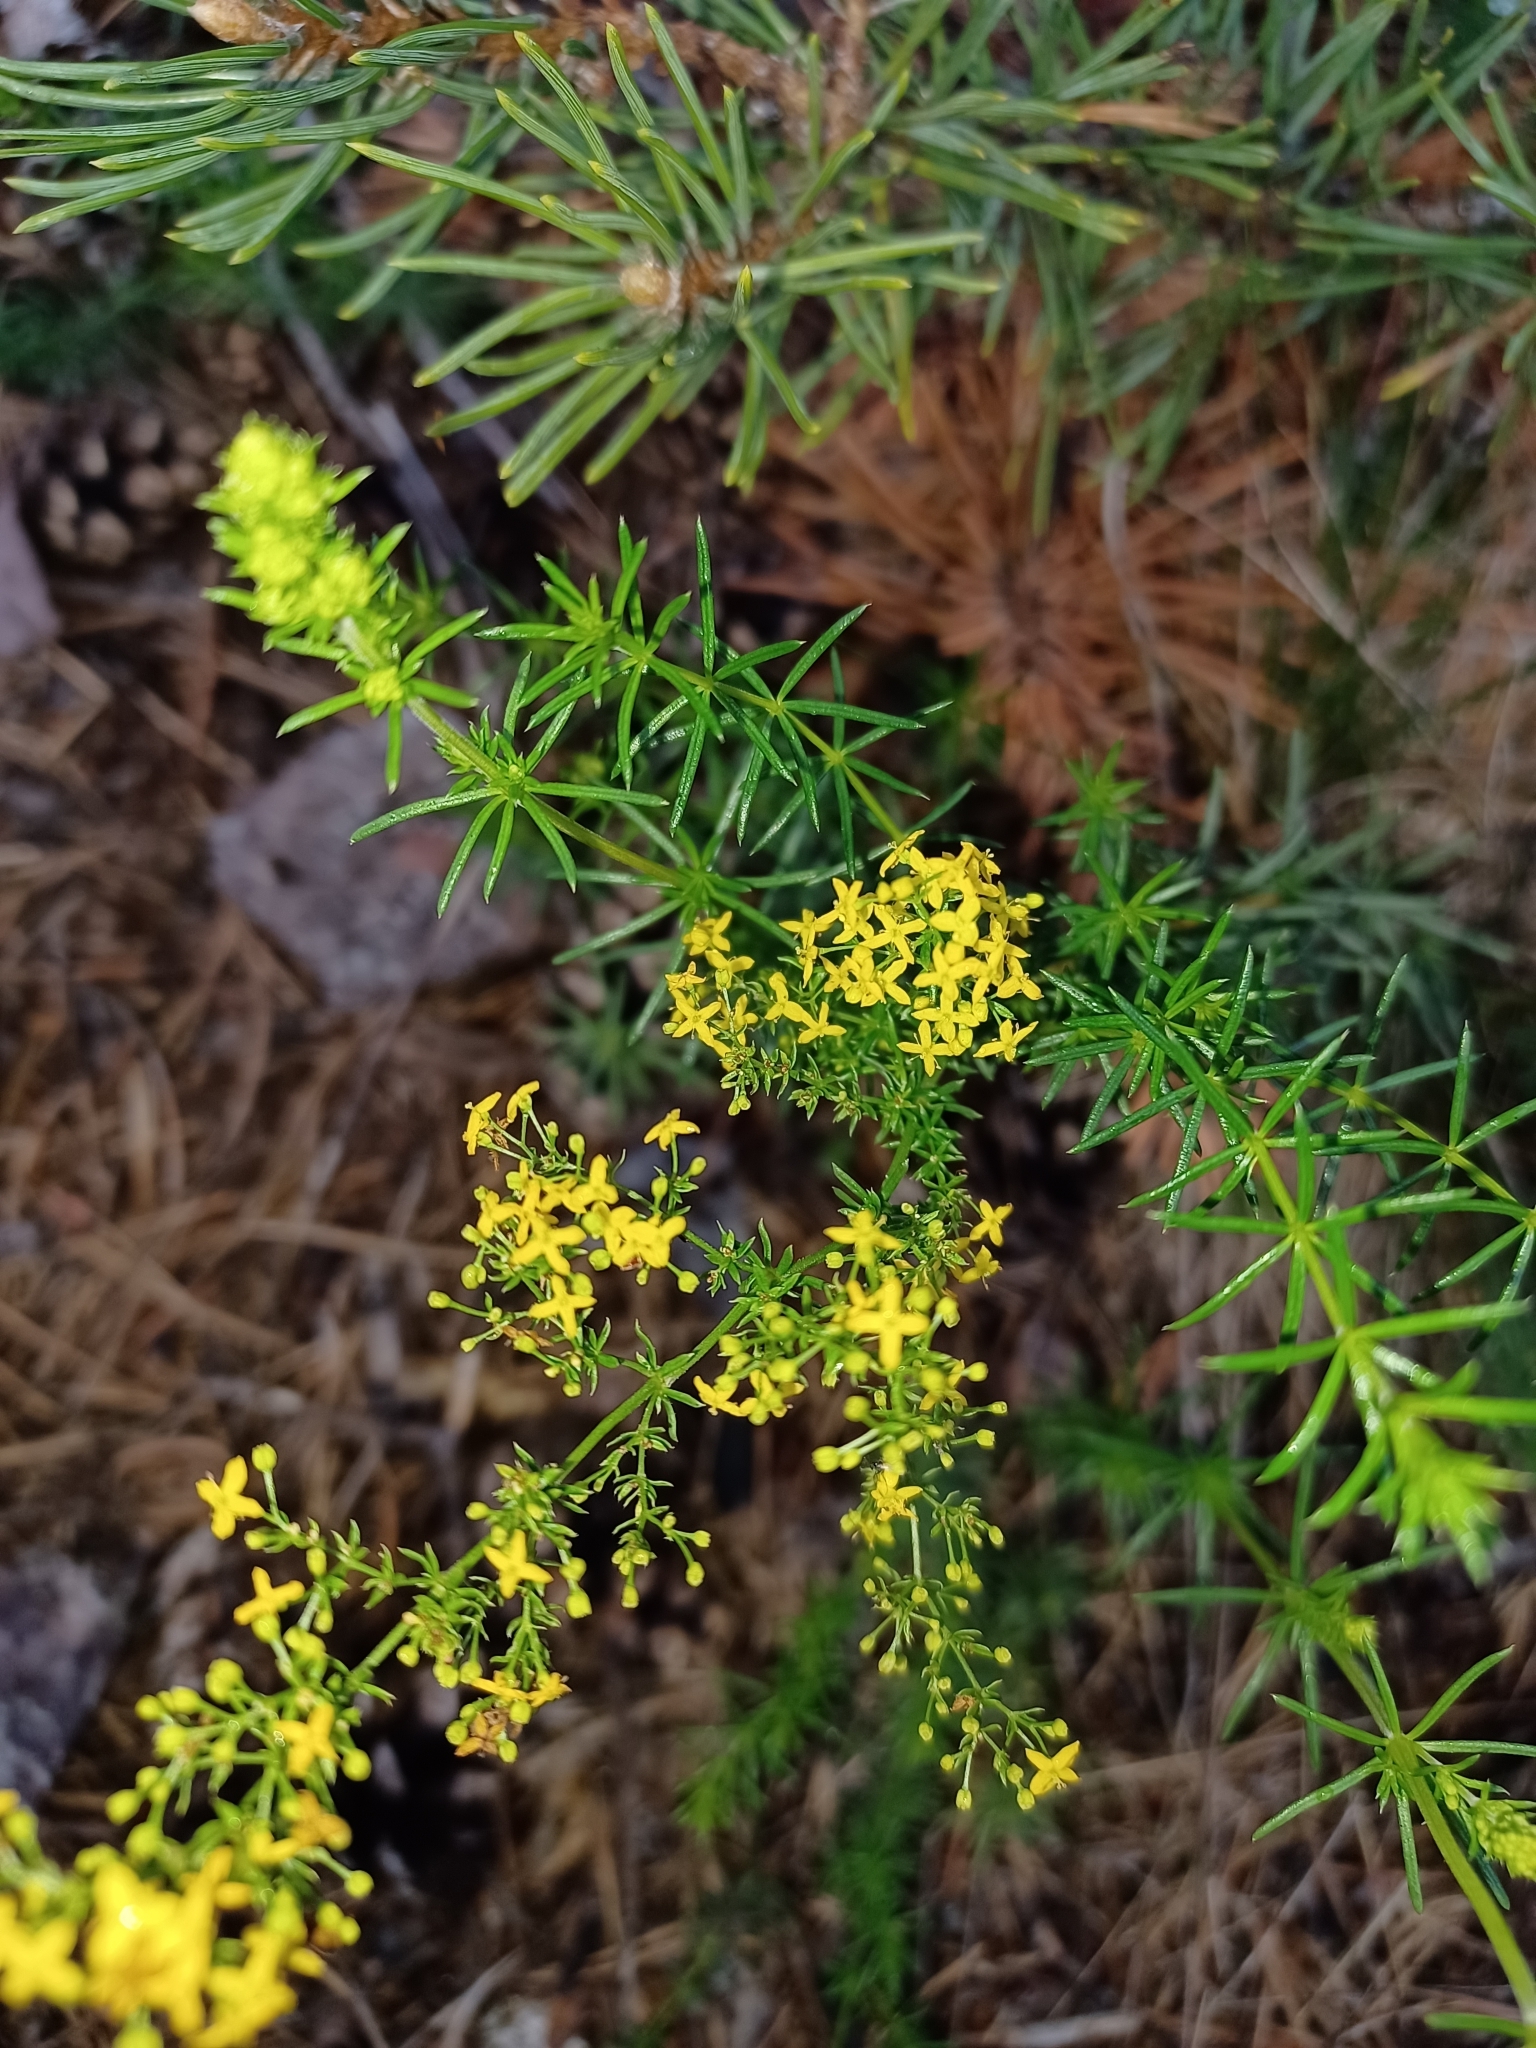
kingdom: Plantae
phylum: Tracheophyta
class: Magnoliopsida
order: Gentianales
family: Rubiaceae
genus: Galium
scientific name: Galium verum
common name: Lady's bedstraw
